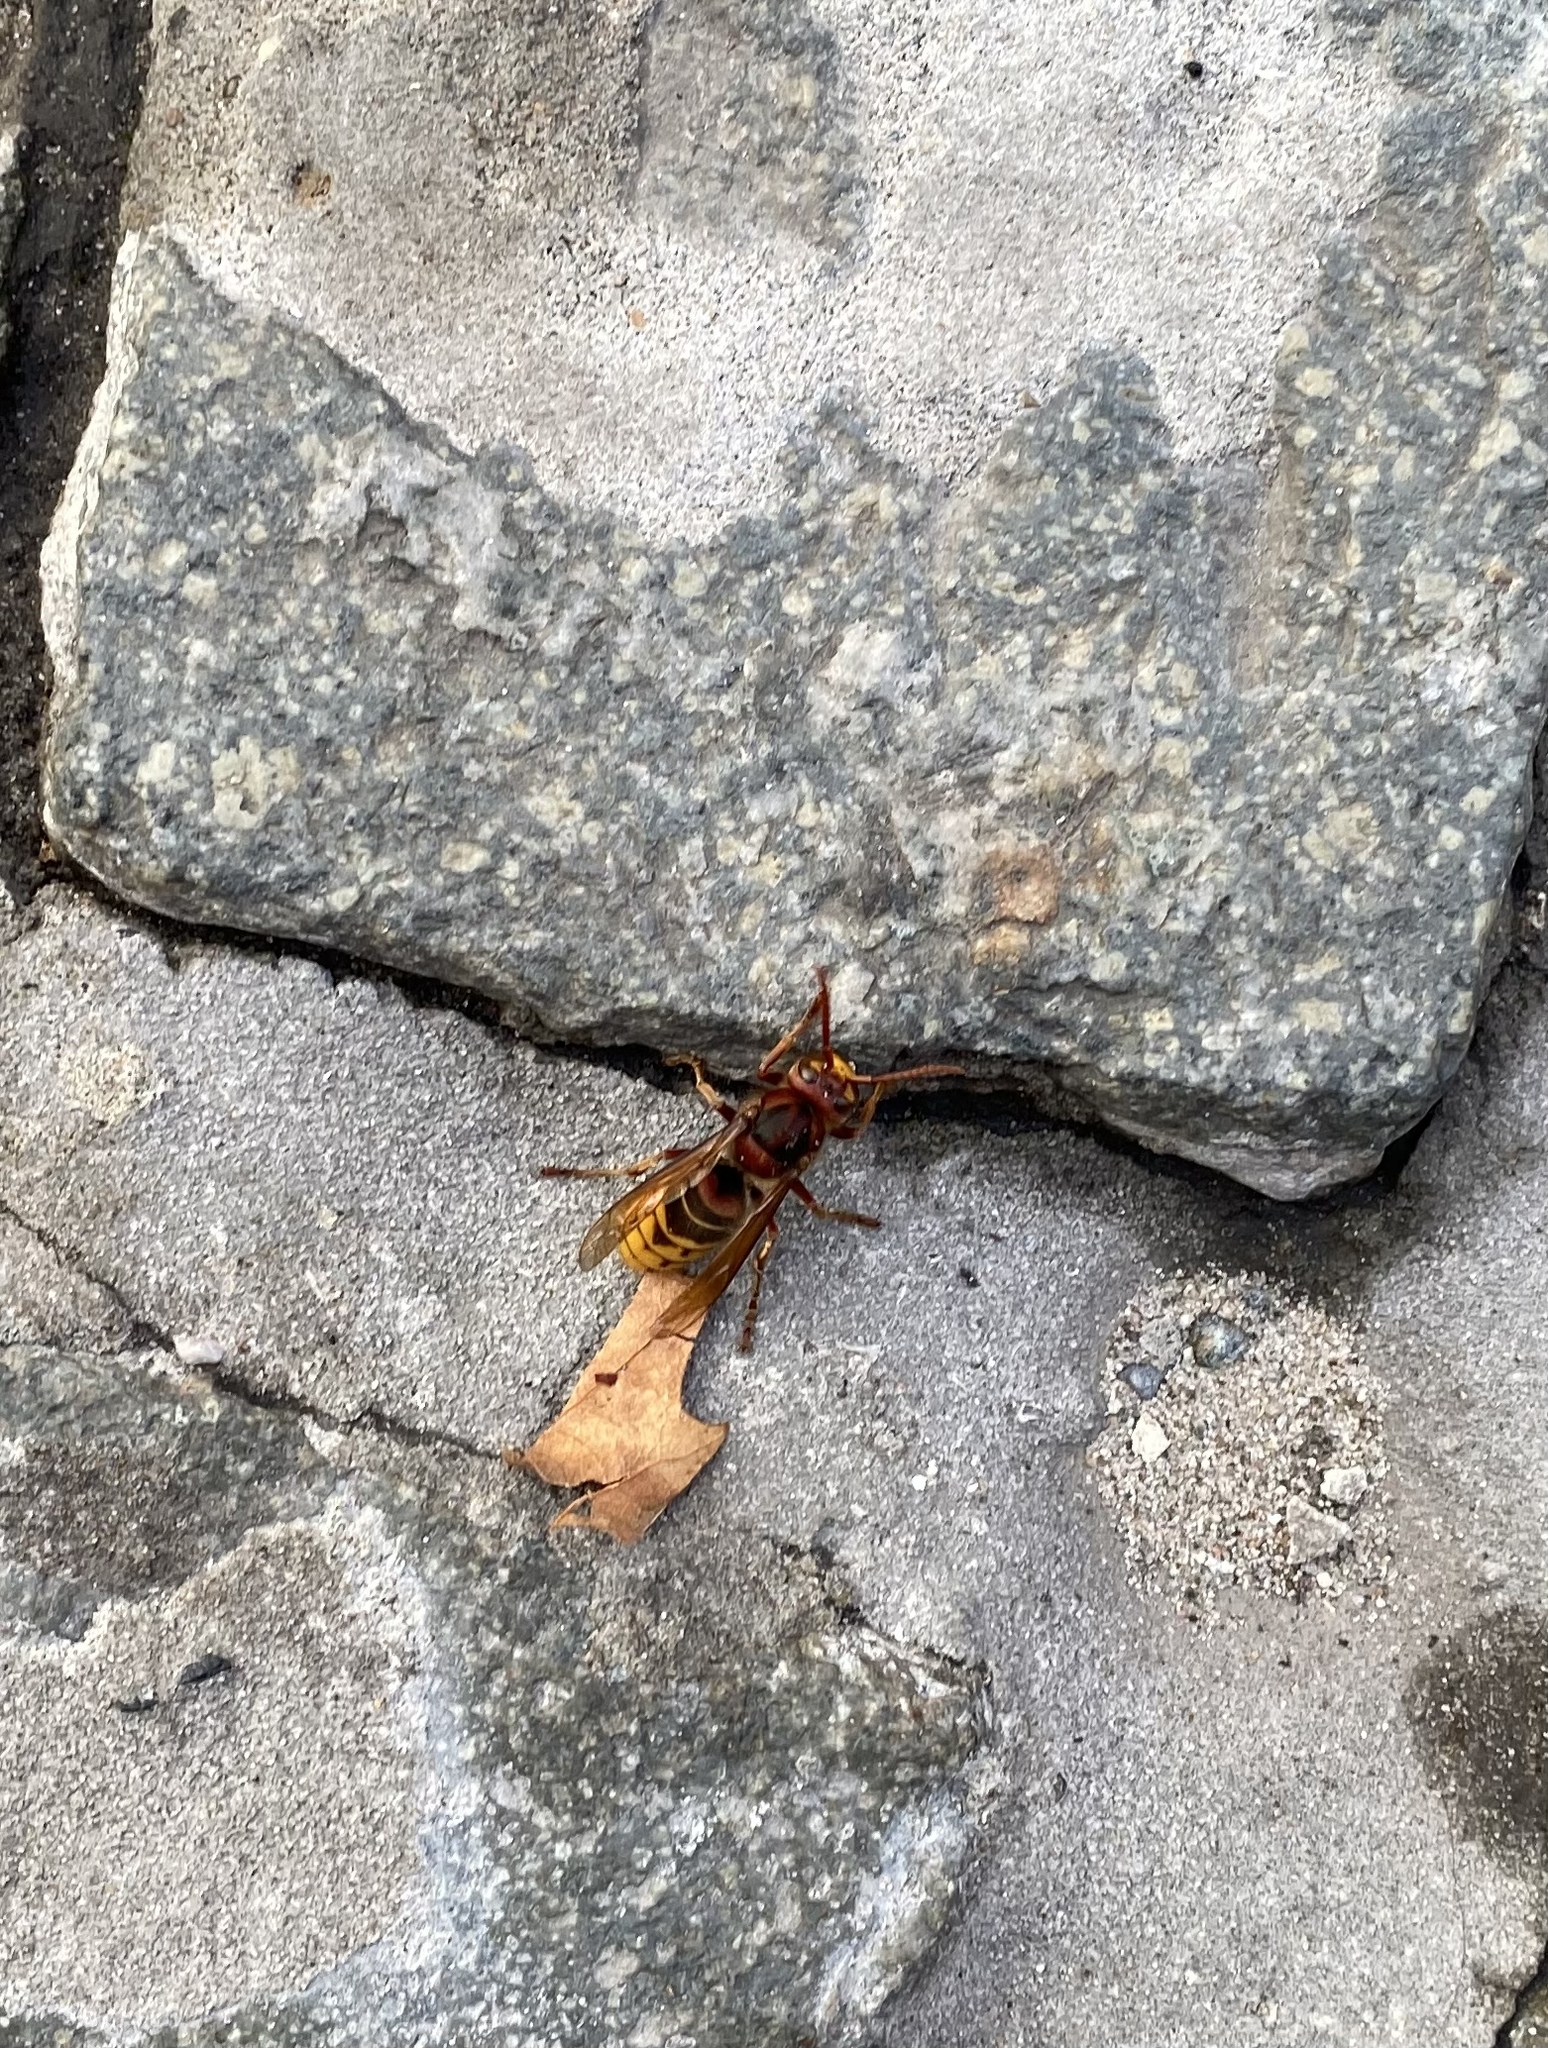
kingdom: Animalia
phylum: Arthropoda
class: Insecta
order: Hymenoptera
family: Vespidae
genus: Vespa
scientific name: Vespa crabro
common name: Hornet
